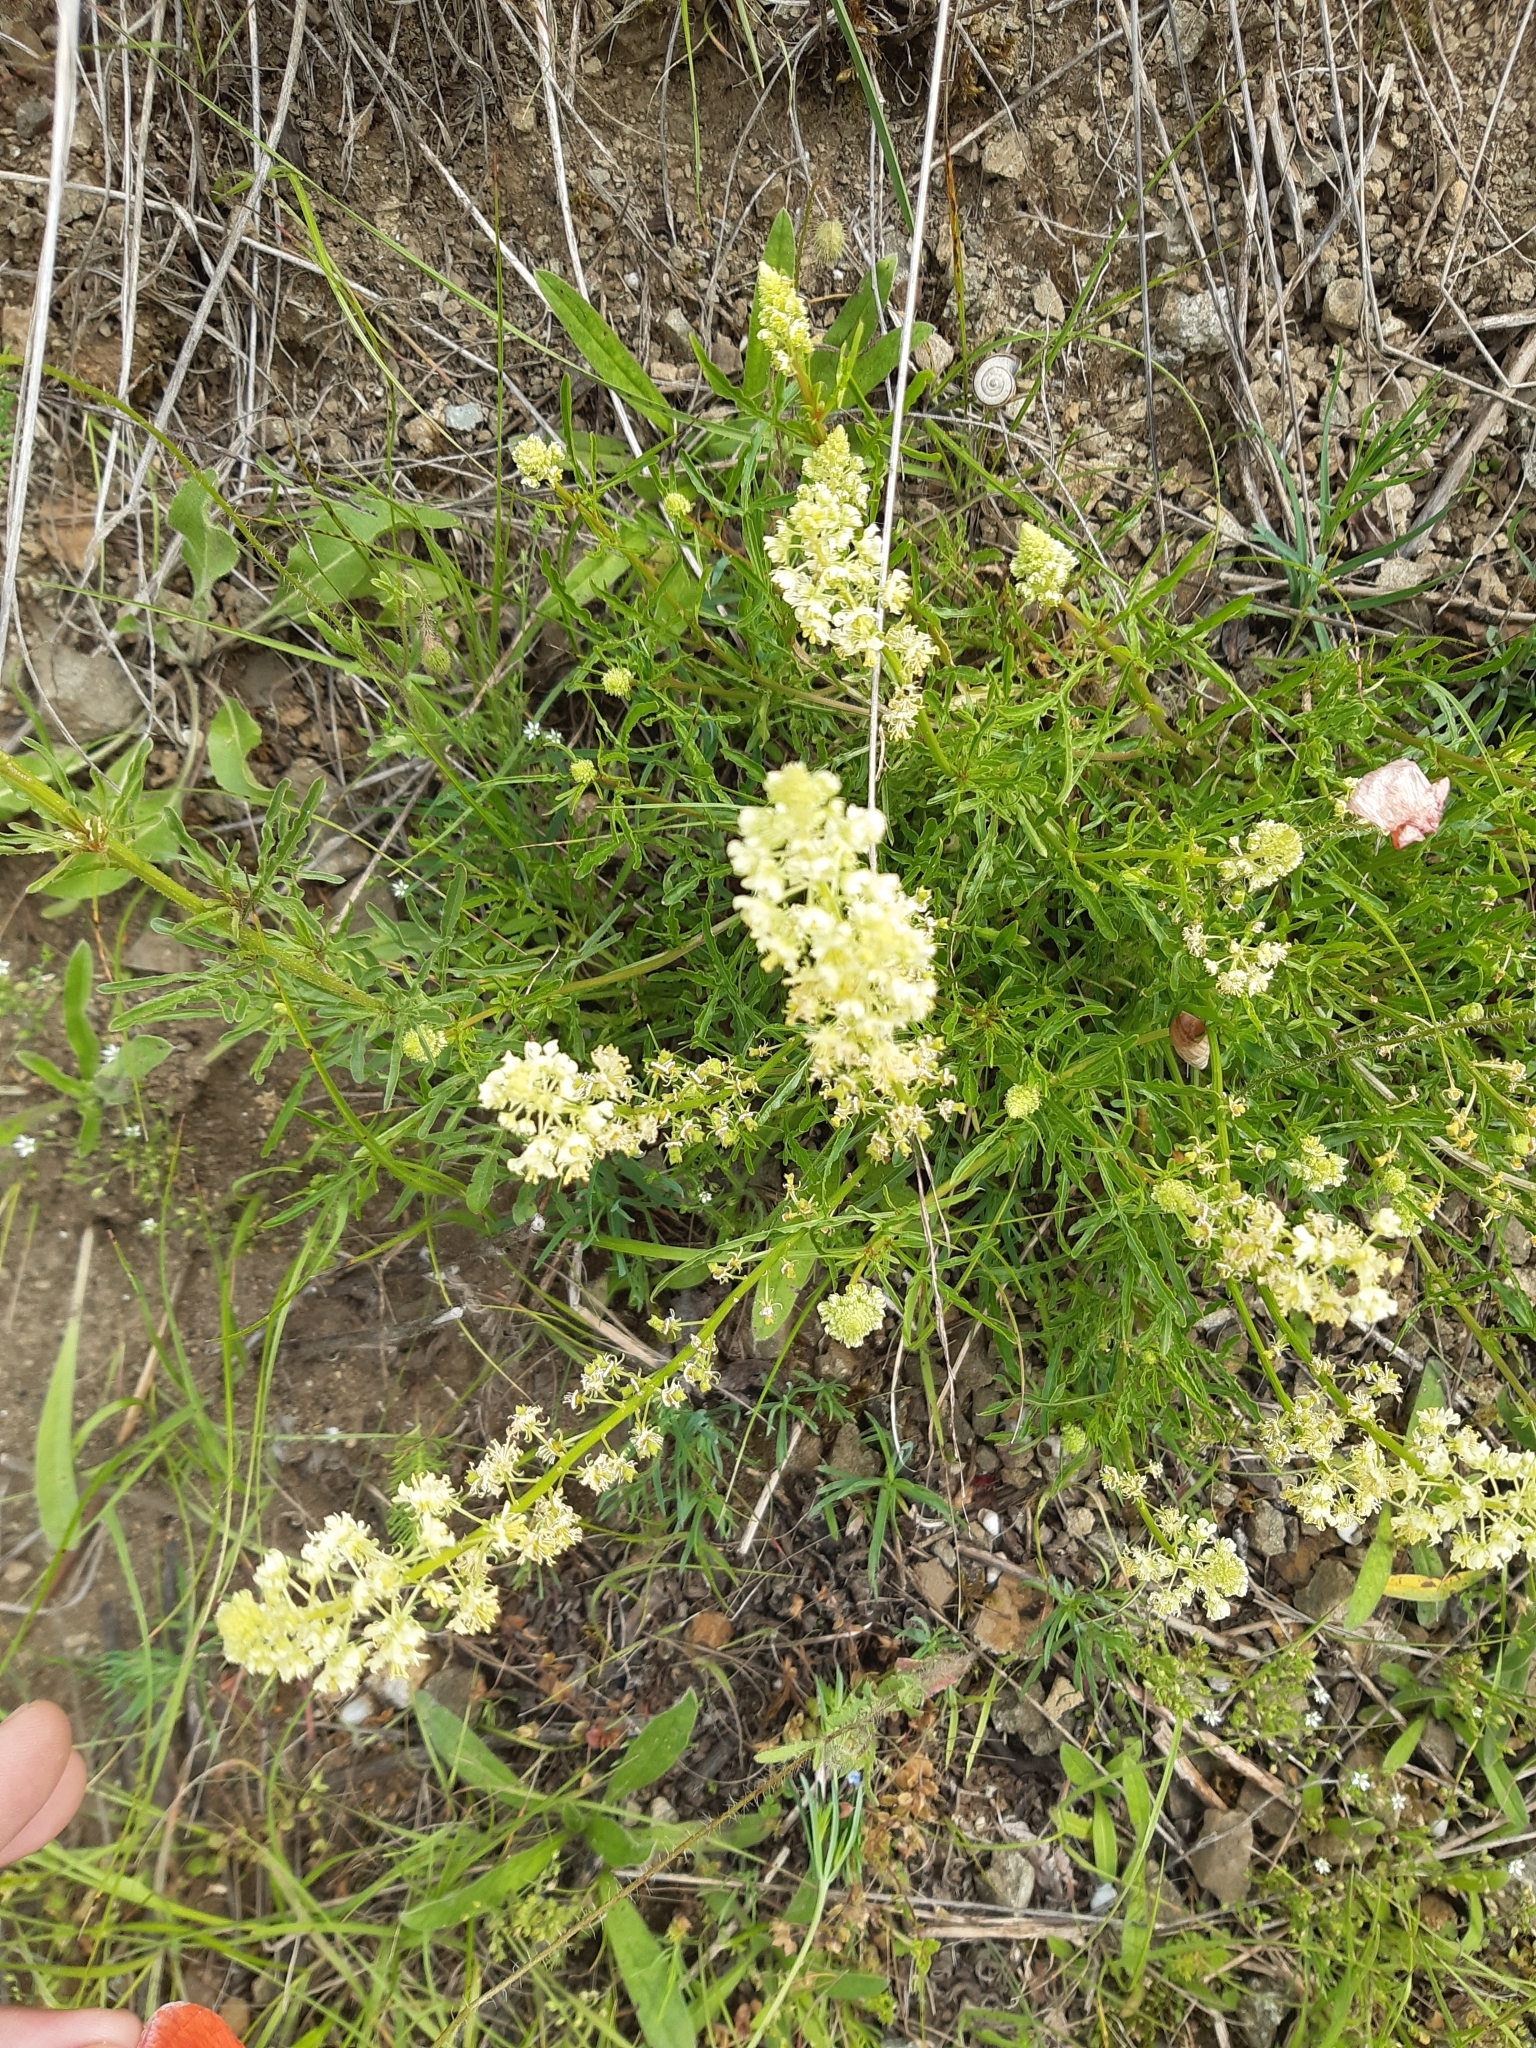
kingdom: Plantae
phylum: Tracheophyta
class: Magnoliopsida
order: Brassicales
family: Resedaceae
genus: Reseda
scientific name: Reseda lutea
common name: Wild mignonette
